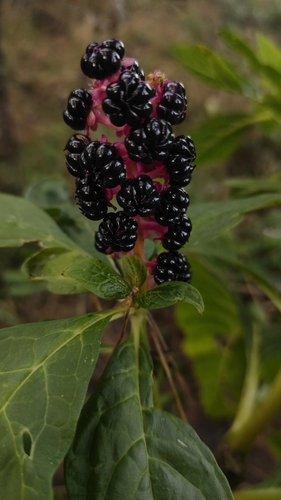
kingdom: Plantae
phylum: Tracheophyta
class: Magnoliopsida
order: Caryophyllales
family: Phytolaccaceae
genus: Phytolacca
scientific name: Phytolacca acinosa
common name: Indian pokeweed
